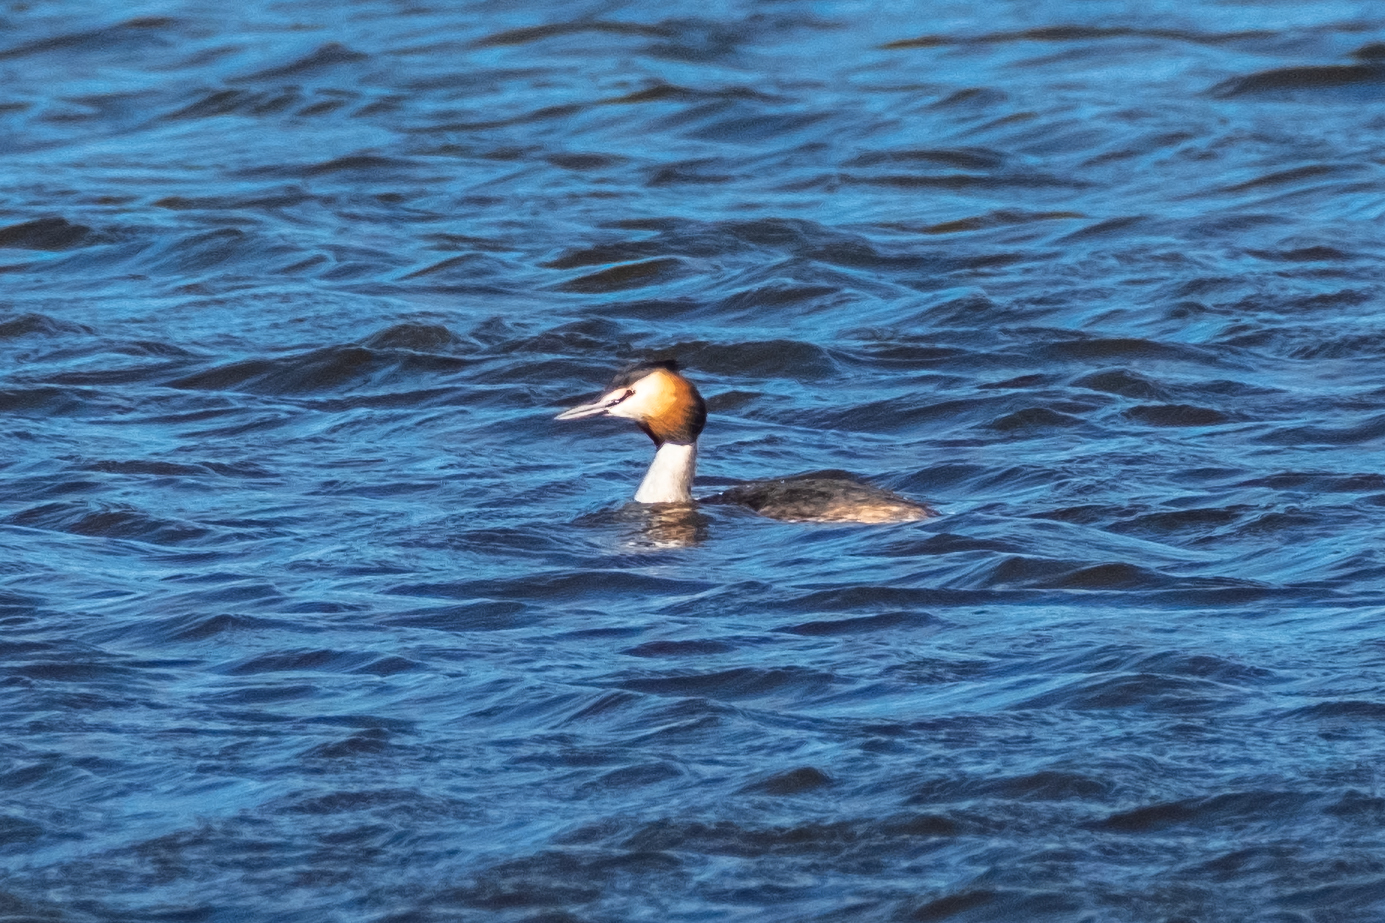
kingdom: Animalia
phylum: Chordata
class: Aves
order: Podicipediformes
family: Podicipedidae
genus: Podiceps
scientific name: Podiceps cristatus
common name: Great crested grebe
